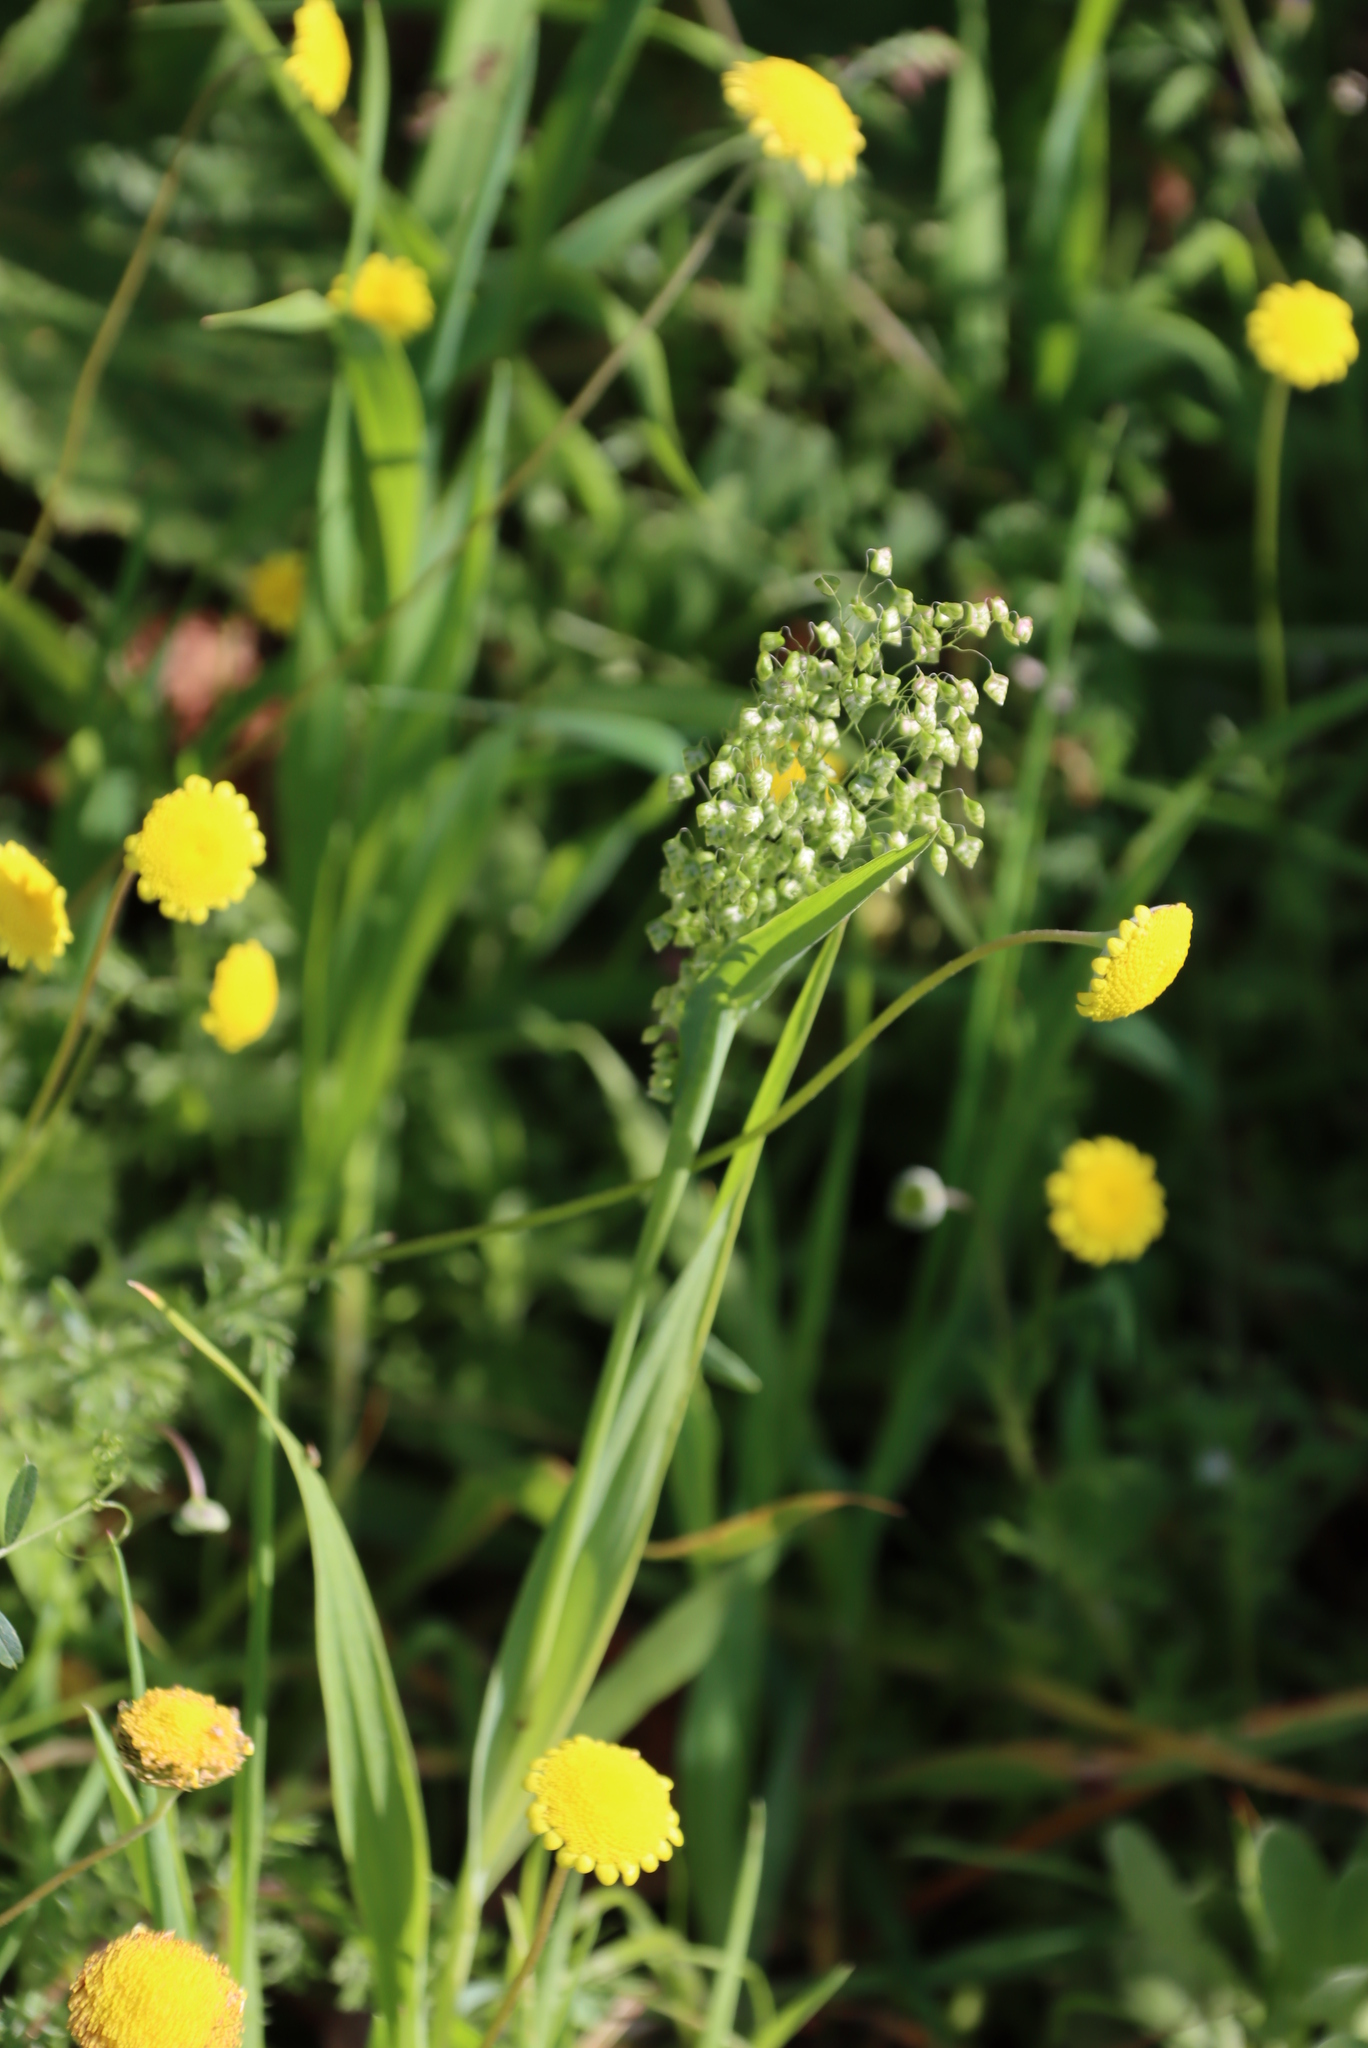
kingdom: Plantae
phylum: Tracheophyta
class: Liliopsida
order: Poales
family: Poaceae
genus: Briza
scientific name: Briza minor
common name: Lesser quaking-grass
